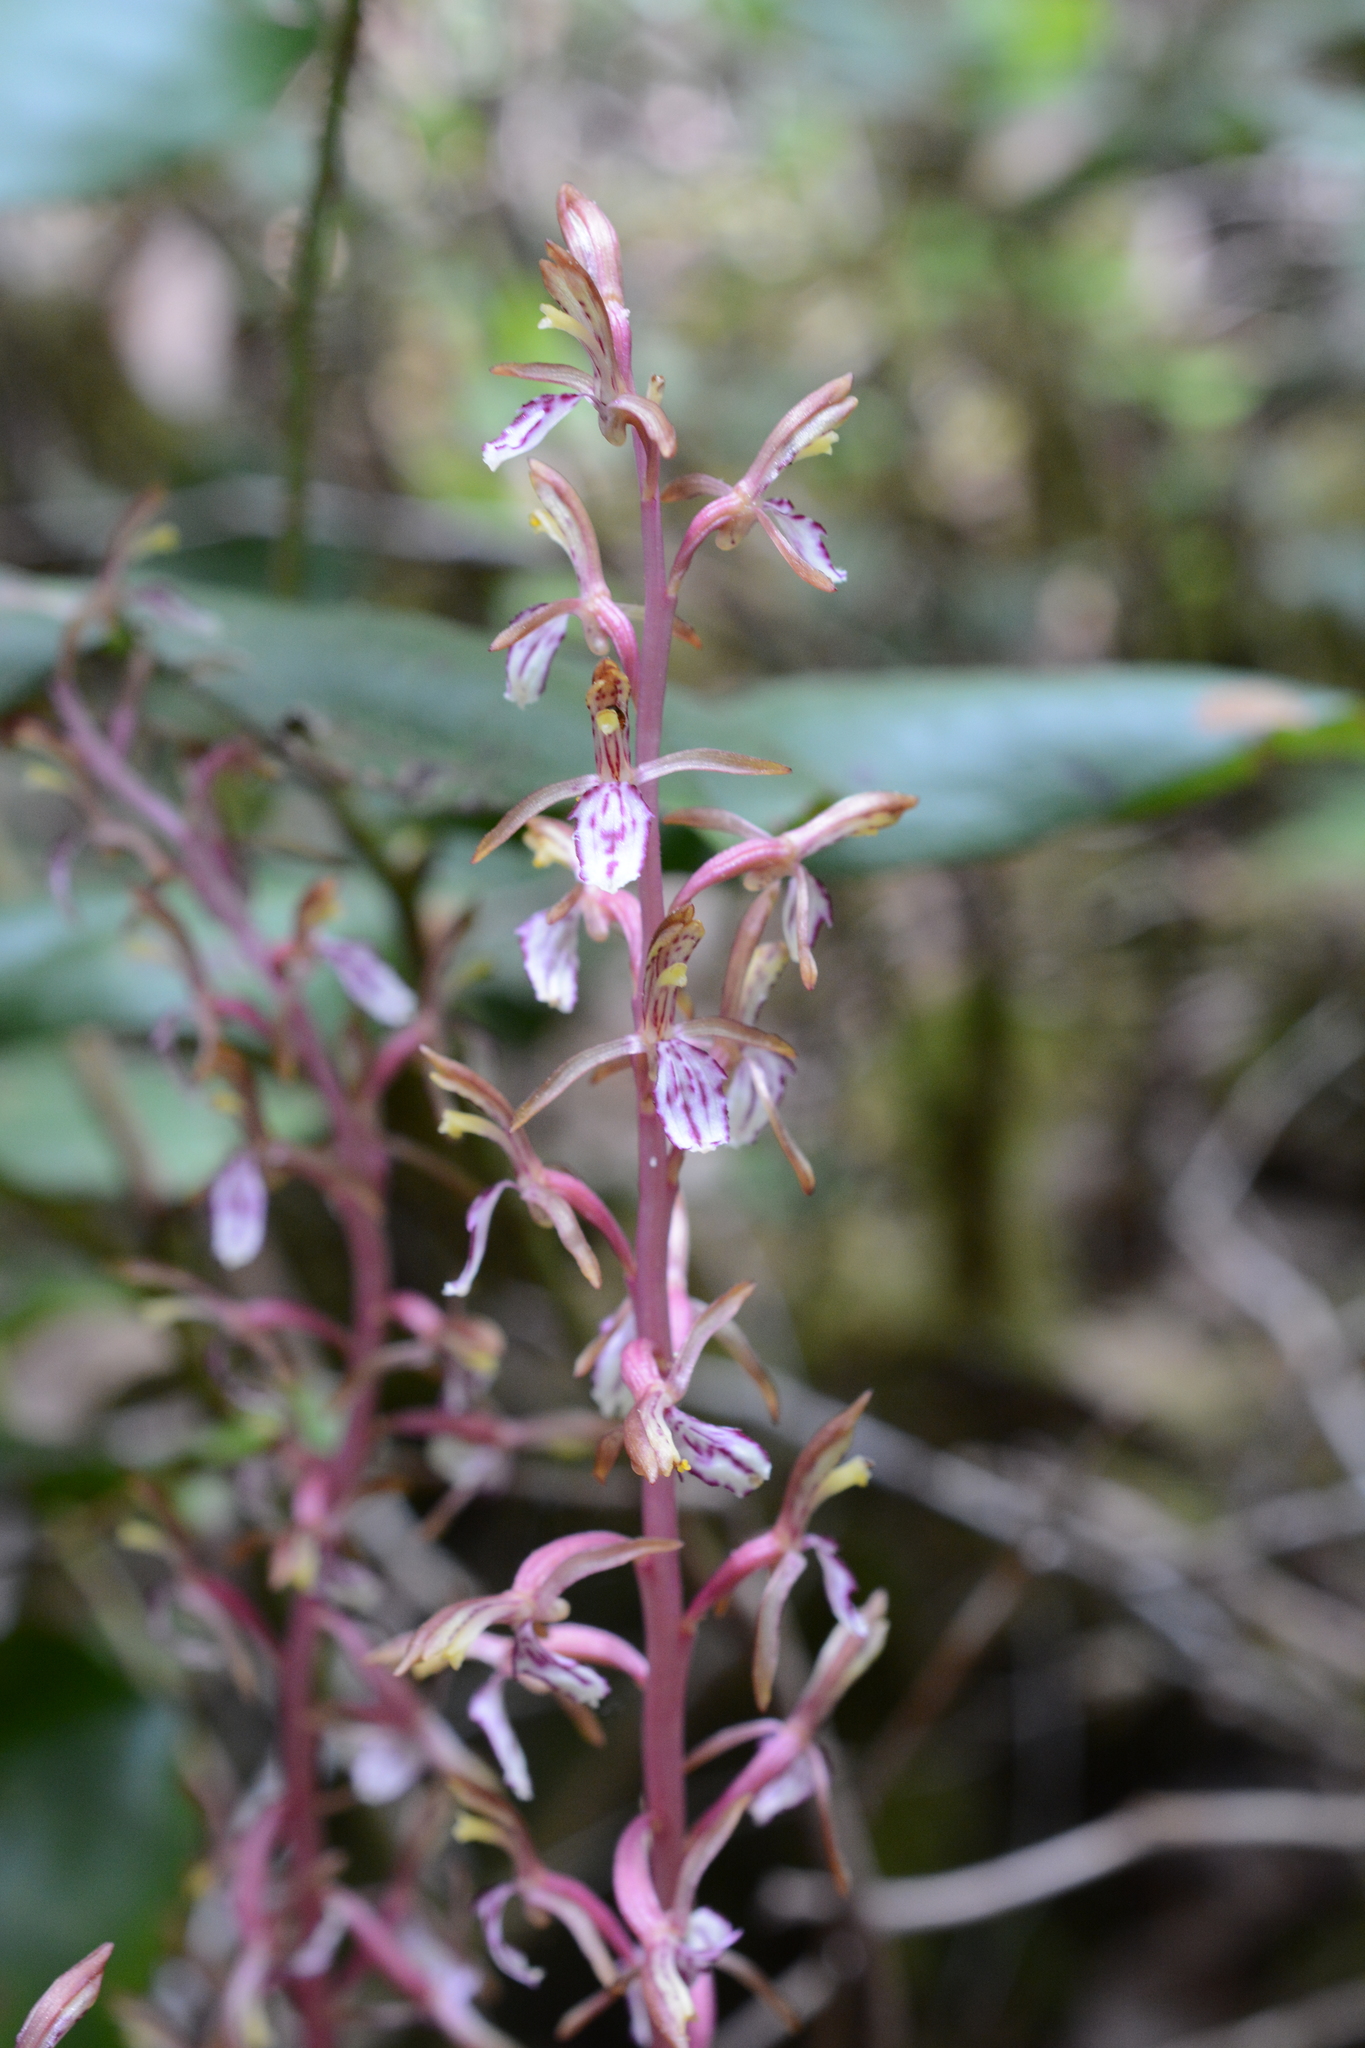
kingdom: Plantae
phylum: Tracheophyta
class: Liliopsida
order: Asparagales
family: Orchidaceae
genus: Corallorhiza
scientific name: Corallorhiza mertensiana
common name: Pacific coralroot
